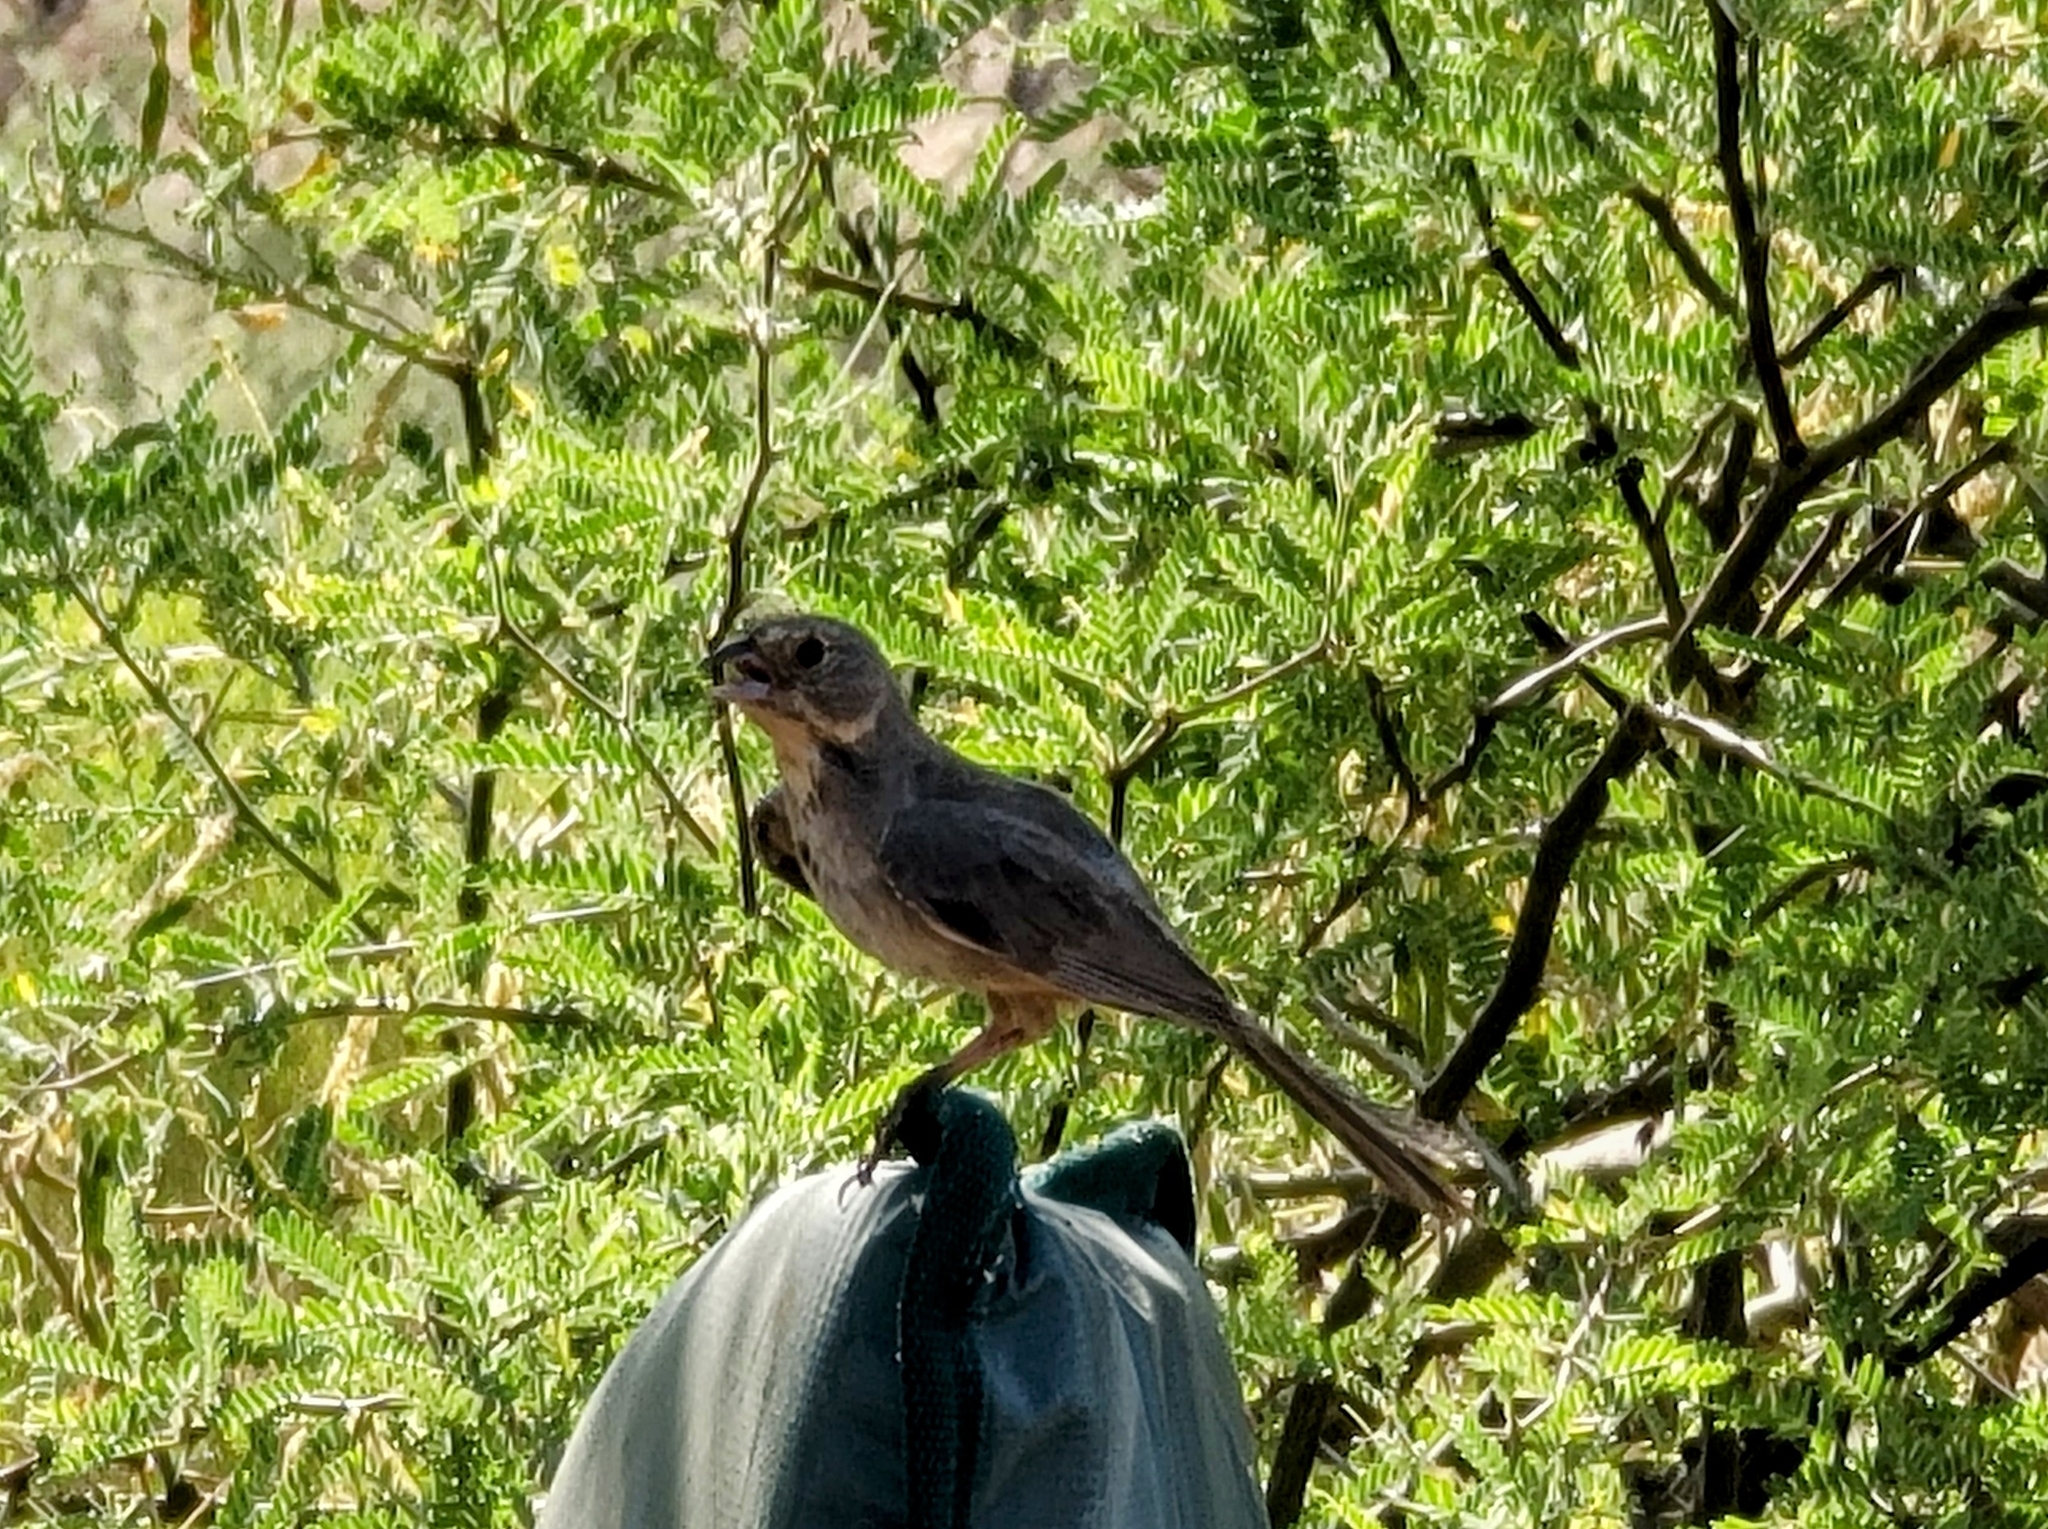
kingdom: Animalia
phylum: Chordata
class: Aves
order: Passeriformes
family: Passerellidae
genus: Melozone
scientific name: Melozone fusca
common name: Canyon towhee
